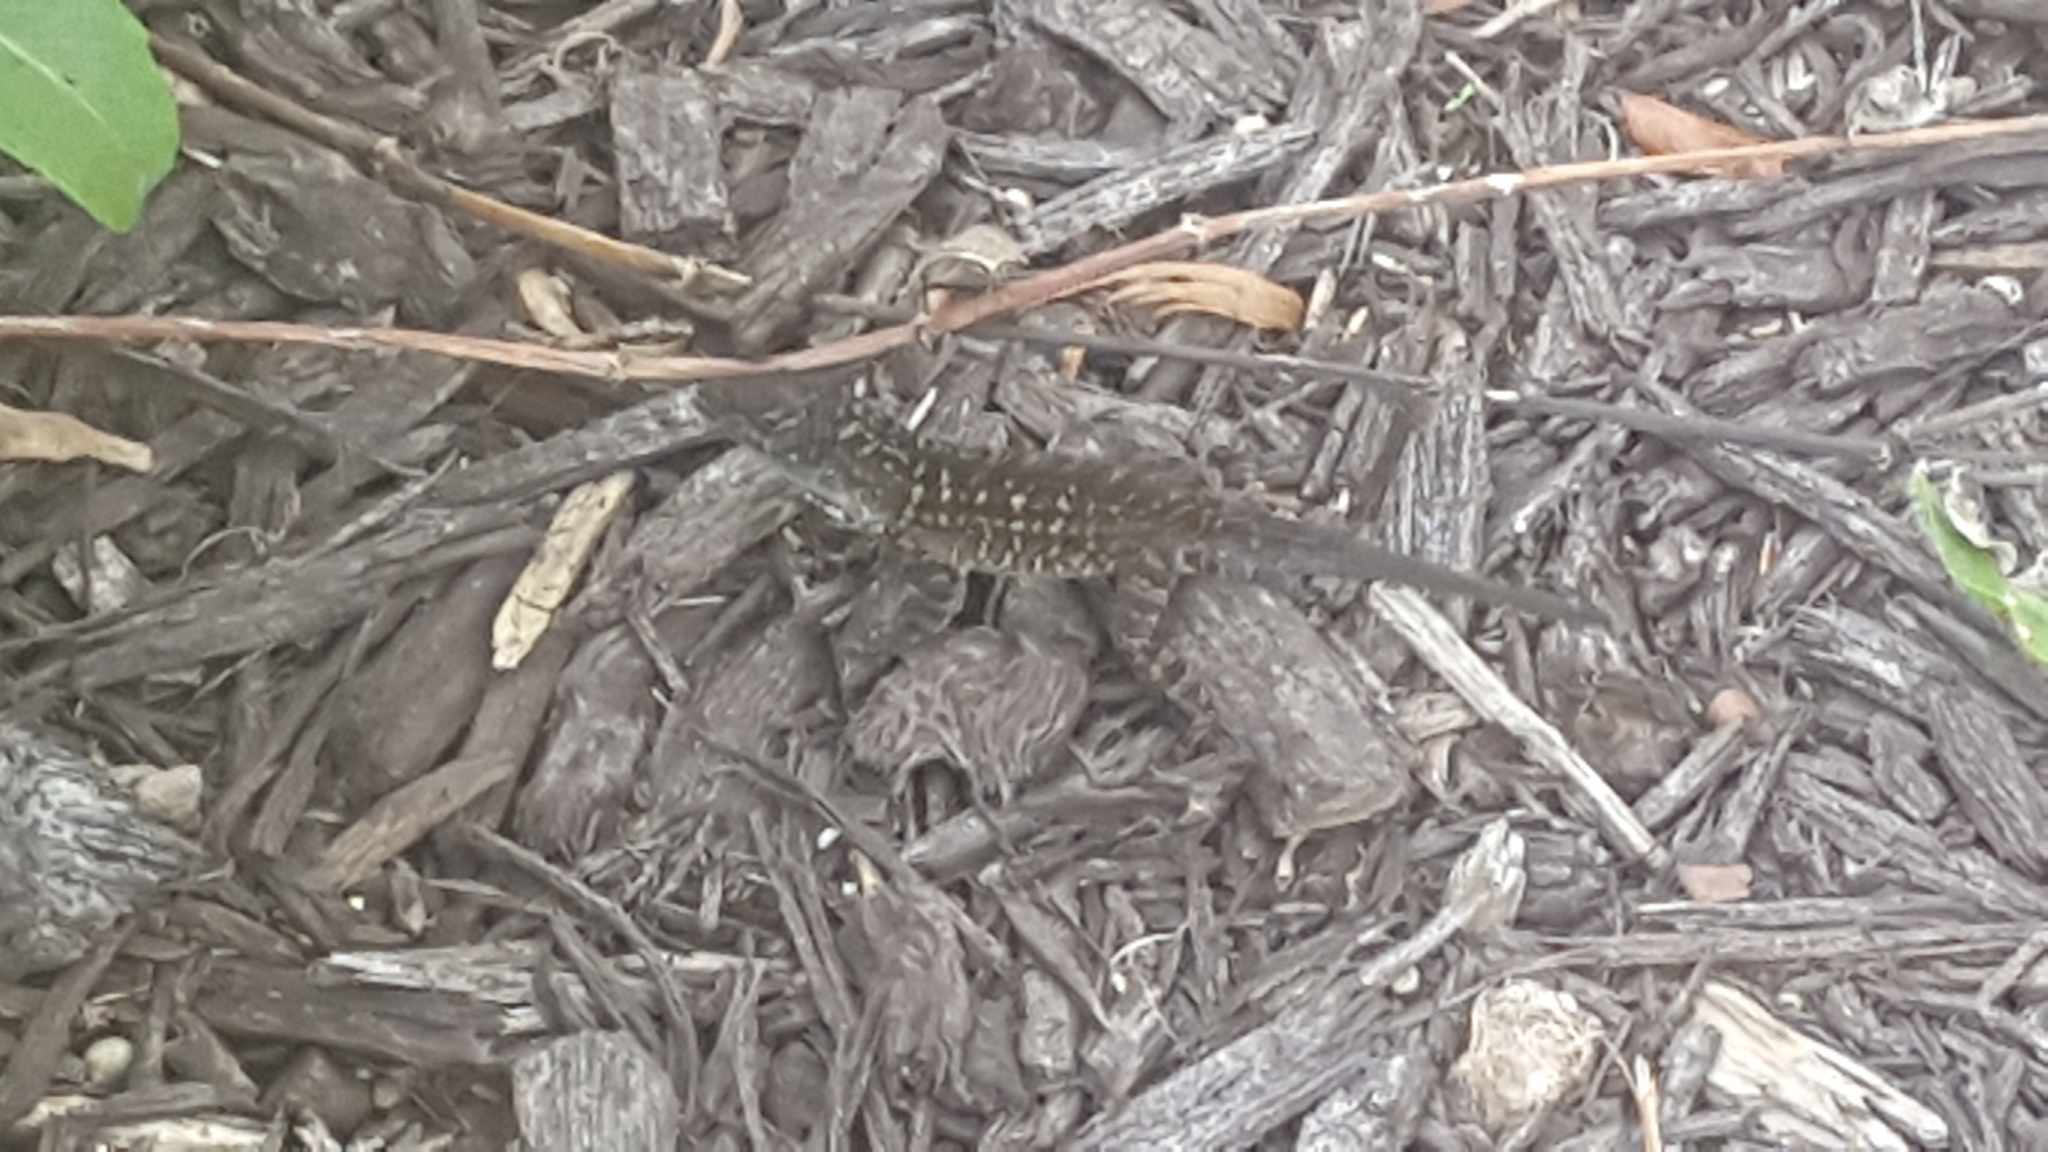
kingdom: Animalia
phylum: Chordata
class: Squamata
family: Dactyloidae
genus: Anolis
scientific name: Anolis sagrei
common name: Brown anole
